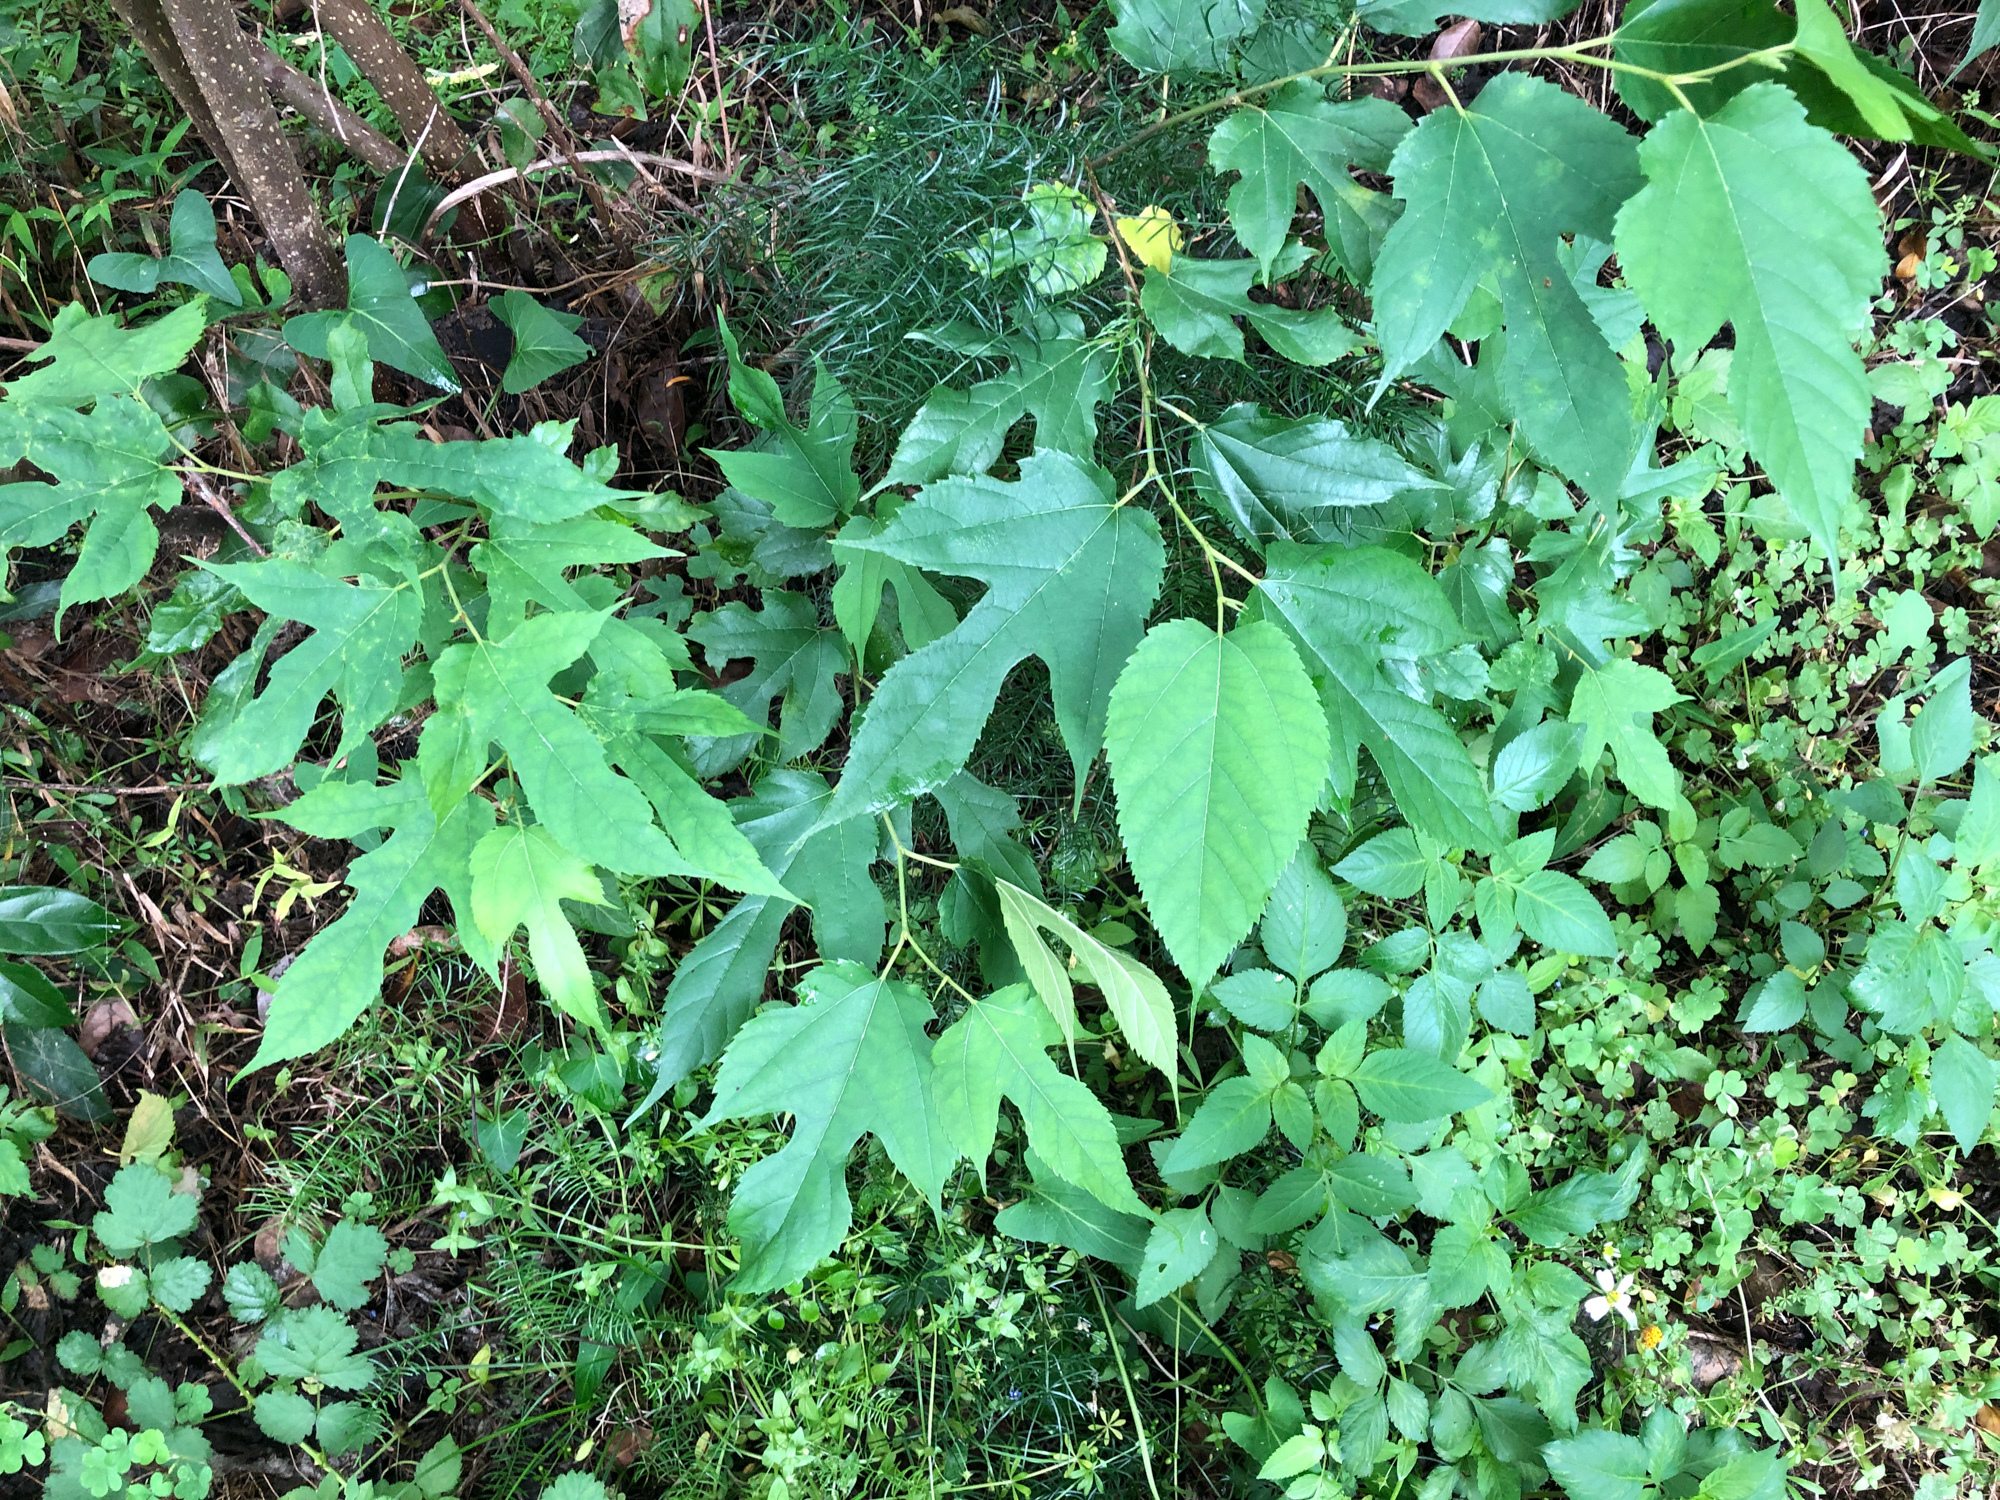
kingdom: Plantae
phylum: Tracheophyta
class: Magnoliopsida
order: Rosales
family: Moraceae
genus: Morus
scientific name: Morus indica
